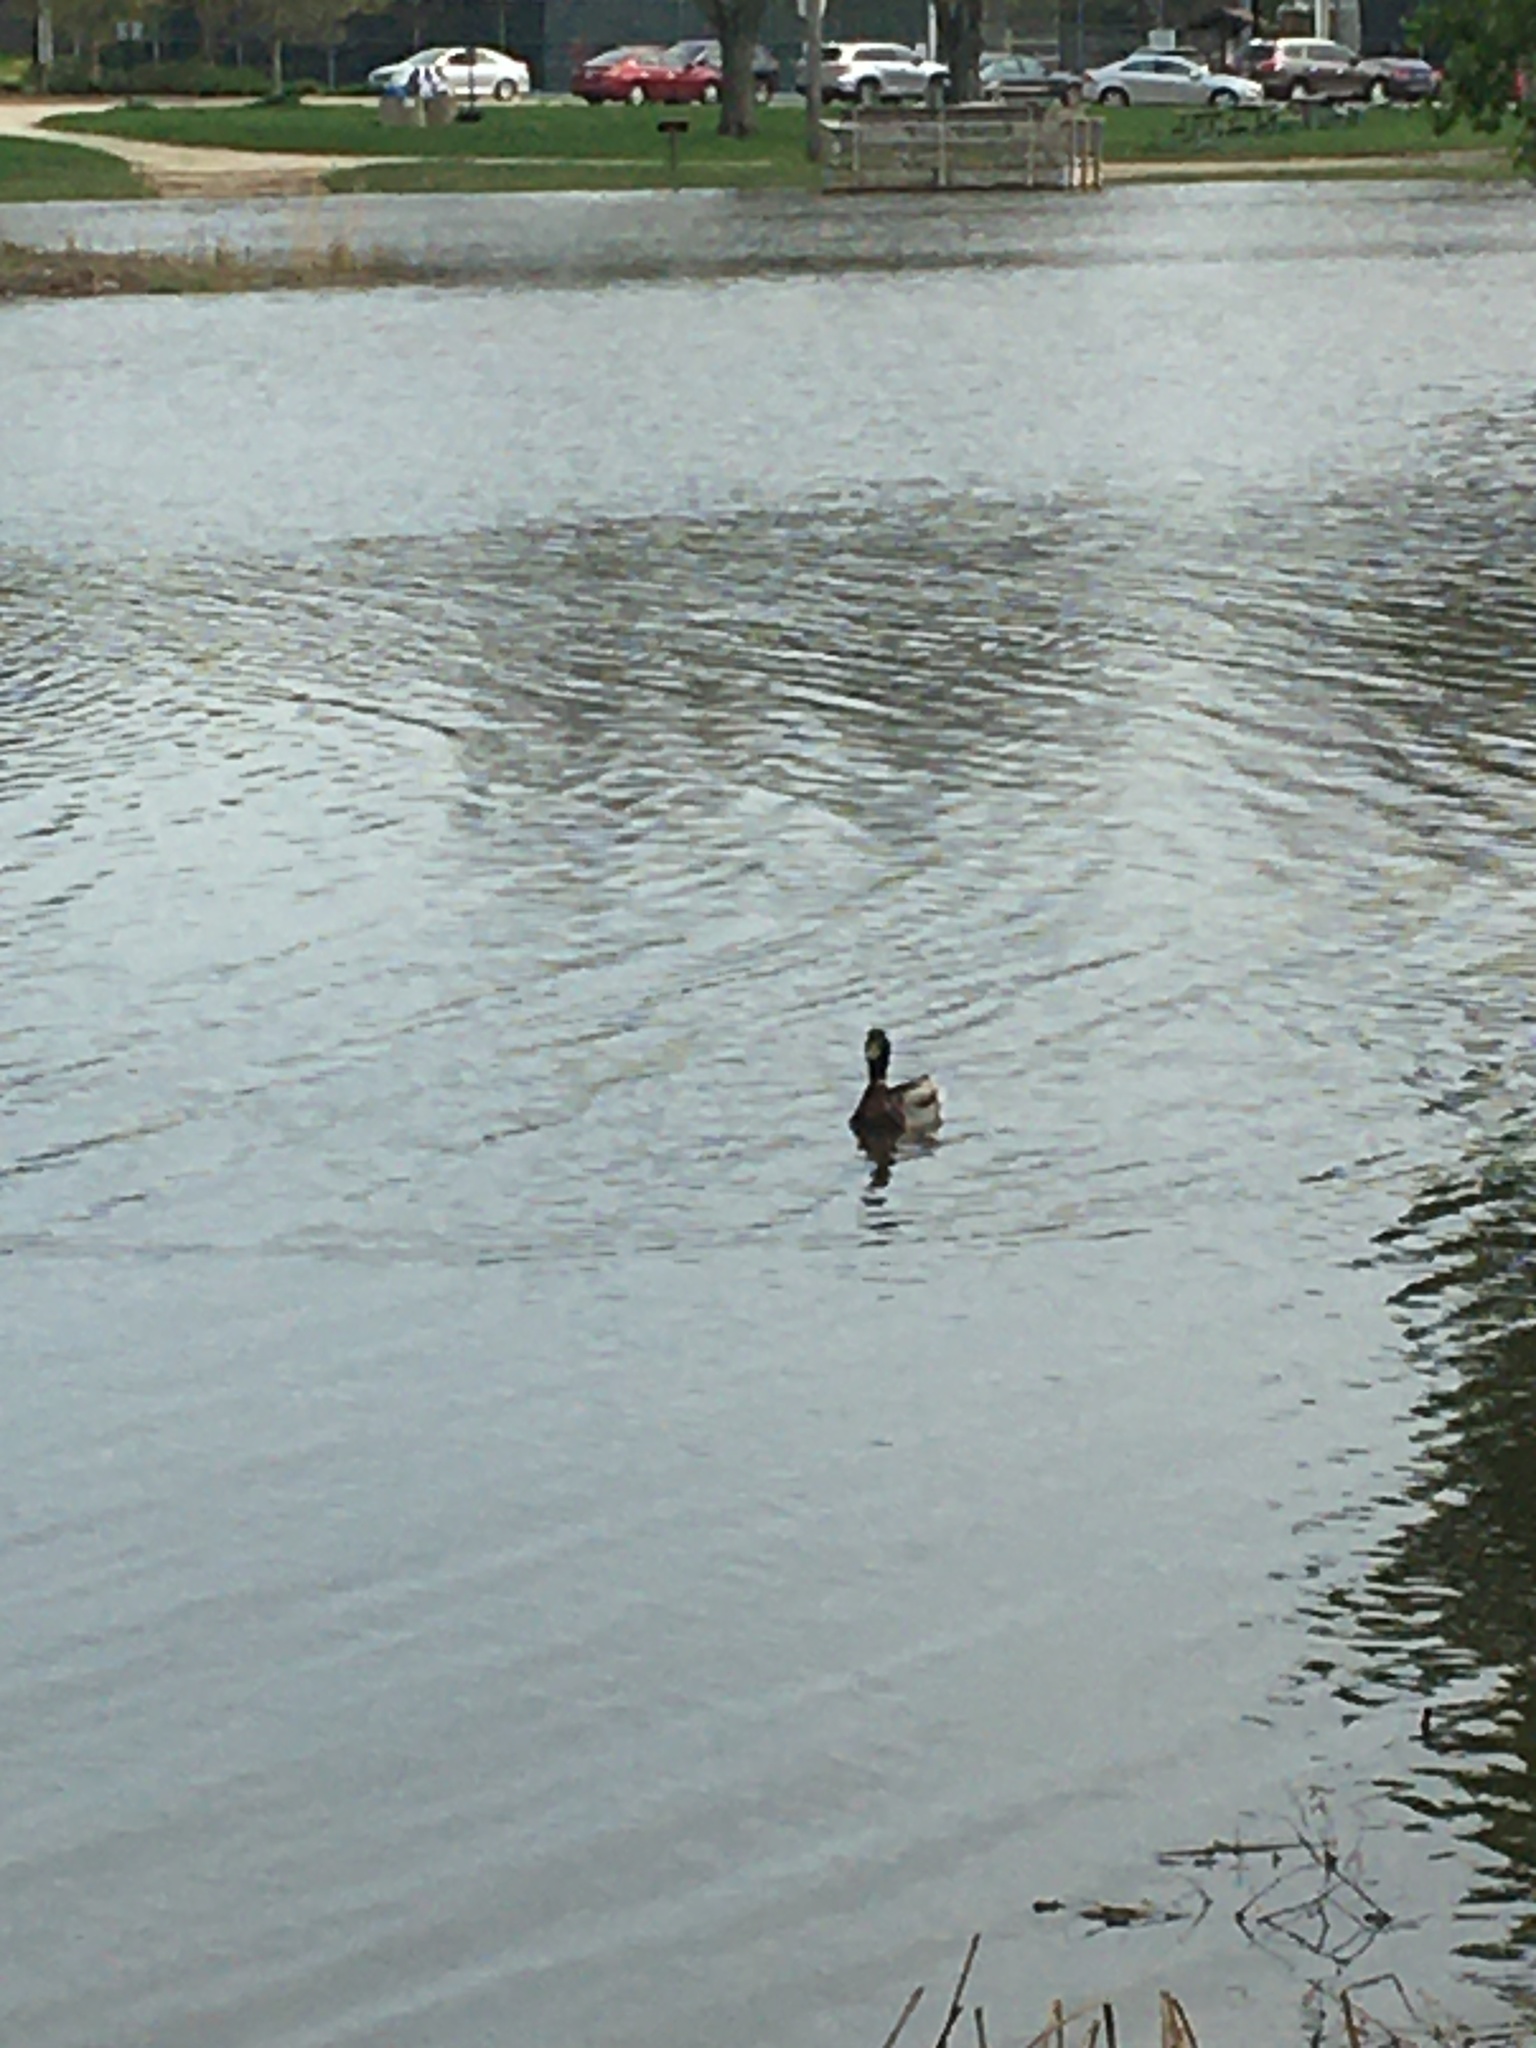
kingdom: Animalia
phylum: Chordata
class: Aves
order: Anseriformes
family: Anatidae
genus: Anas
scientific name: Anas platyrhynchos
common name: Mallard
